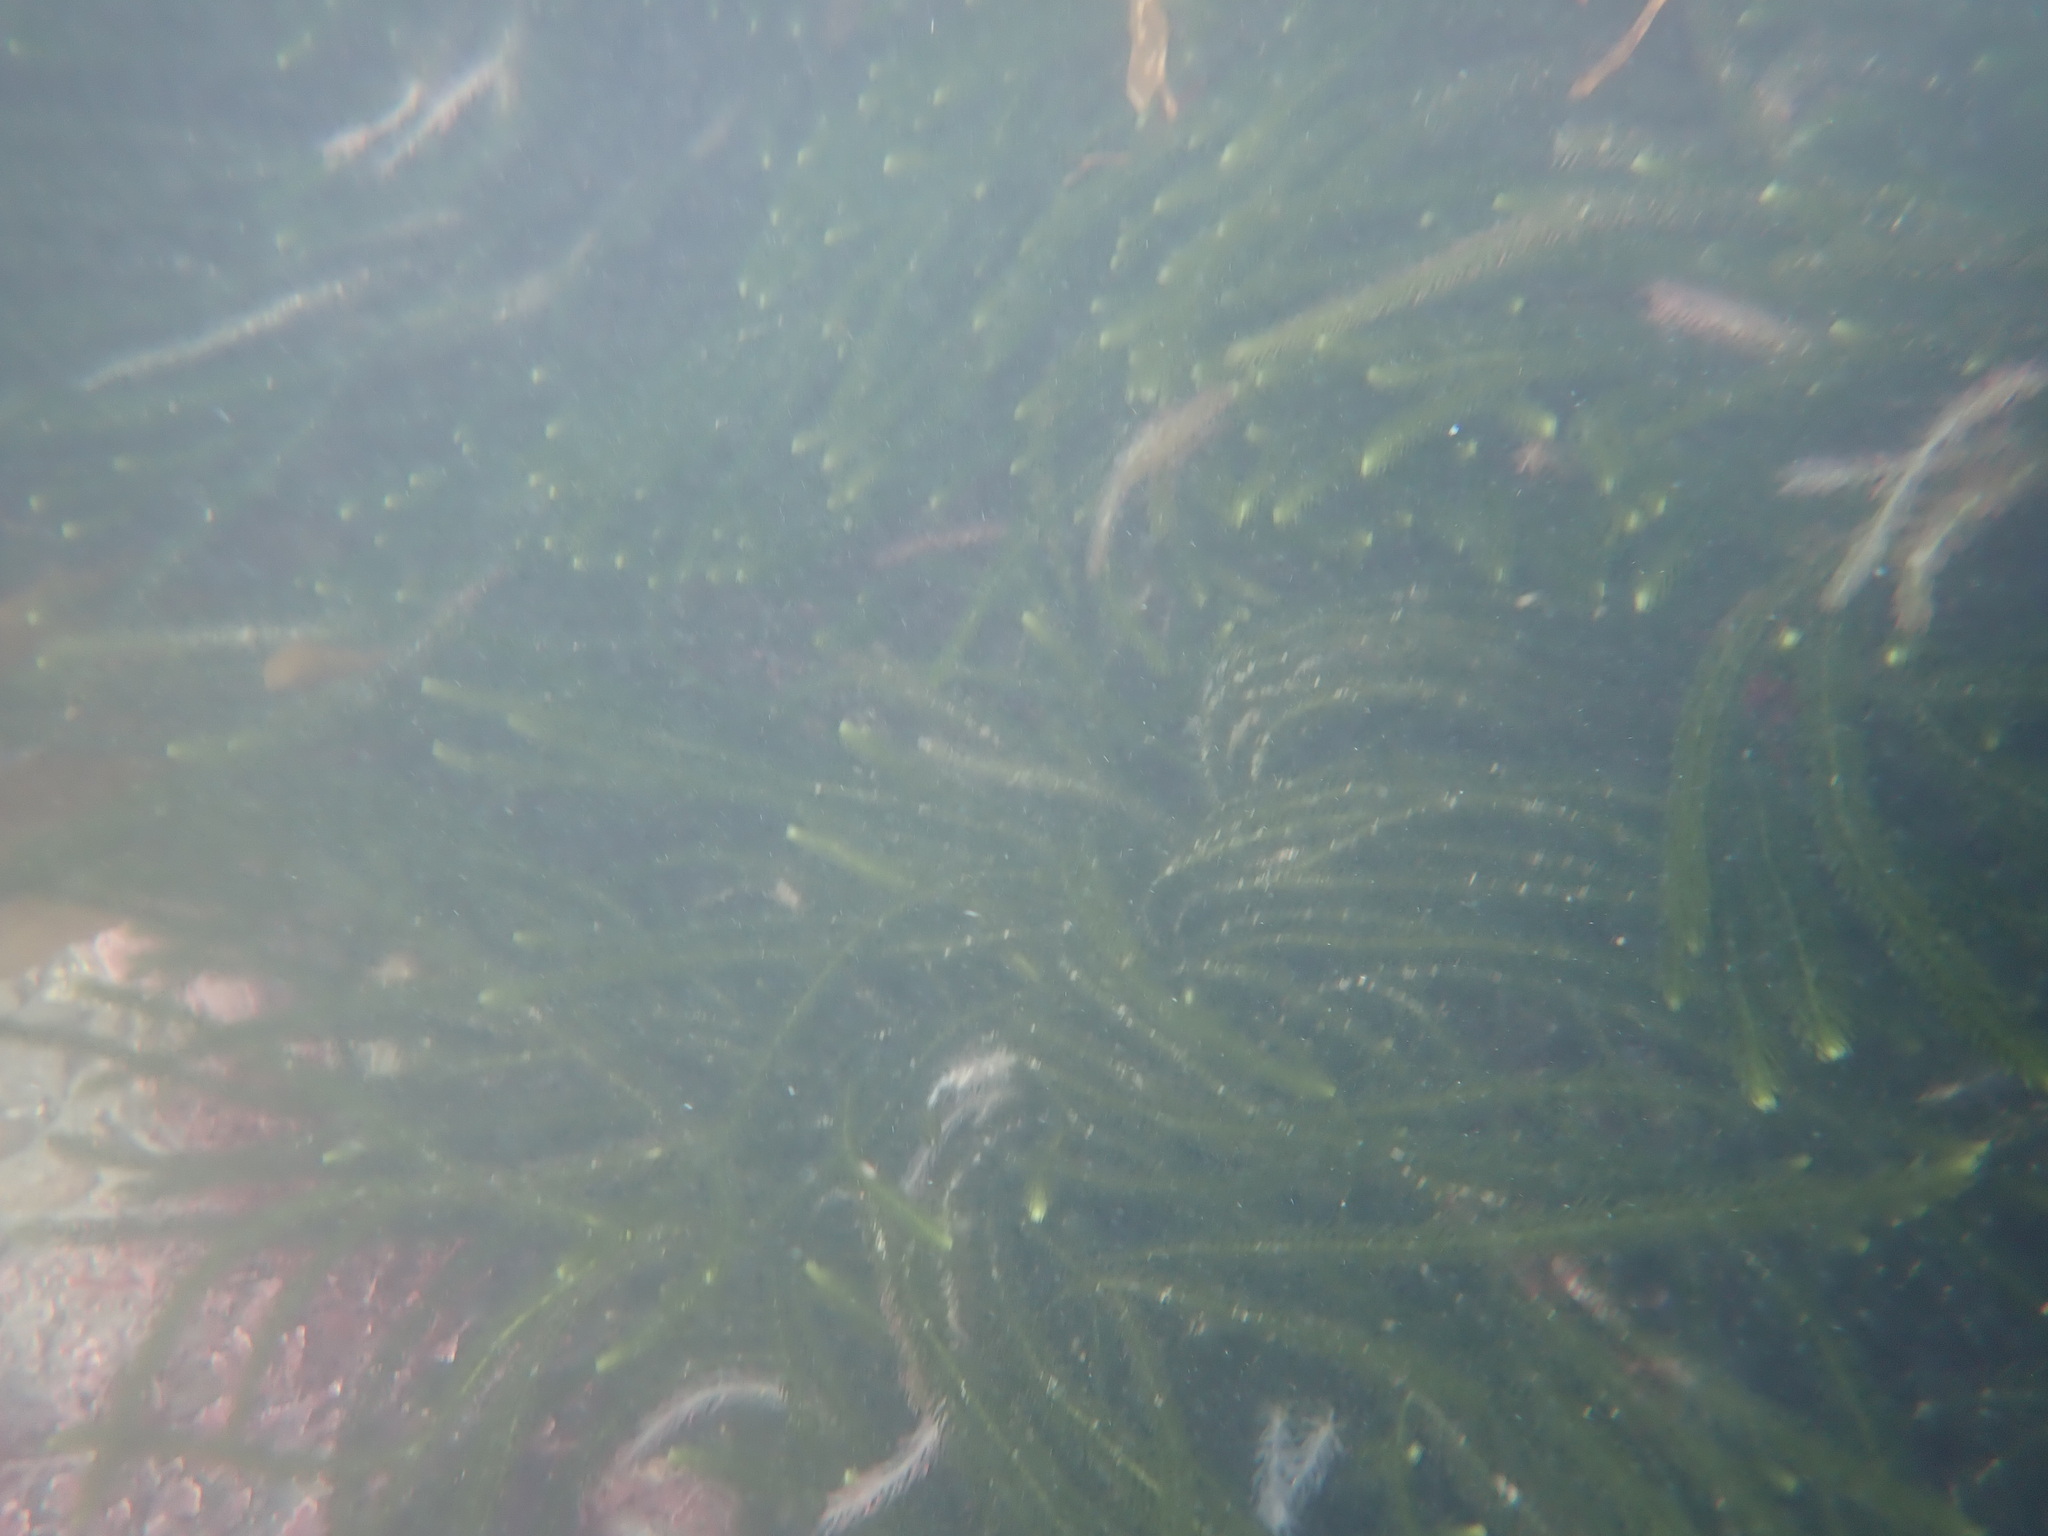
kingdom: Plantae
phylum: Chlorophyta
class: Ulvophyceae
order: Bryopsidales
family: Caulerpaceae
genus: Caulerpa
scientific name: Caulerpa brownii
